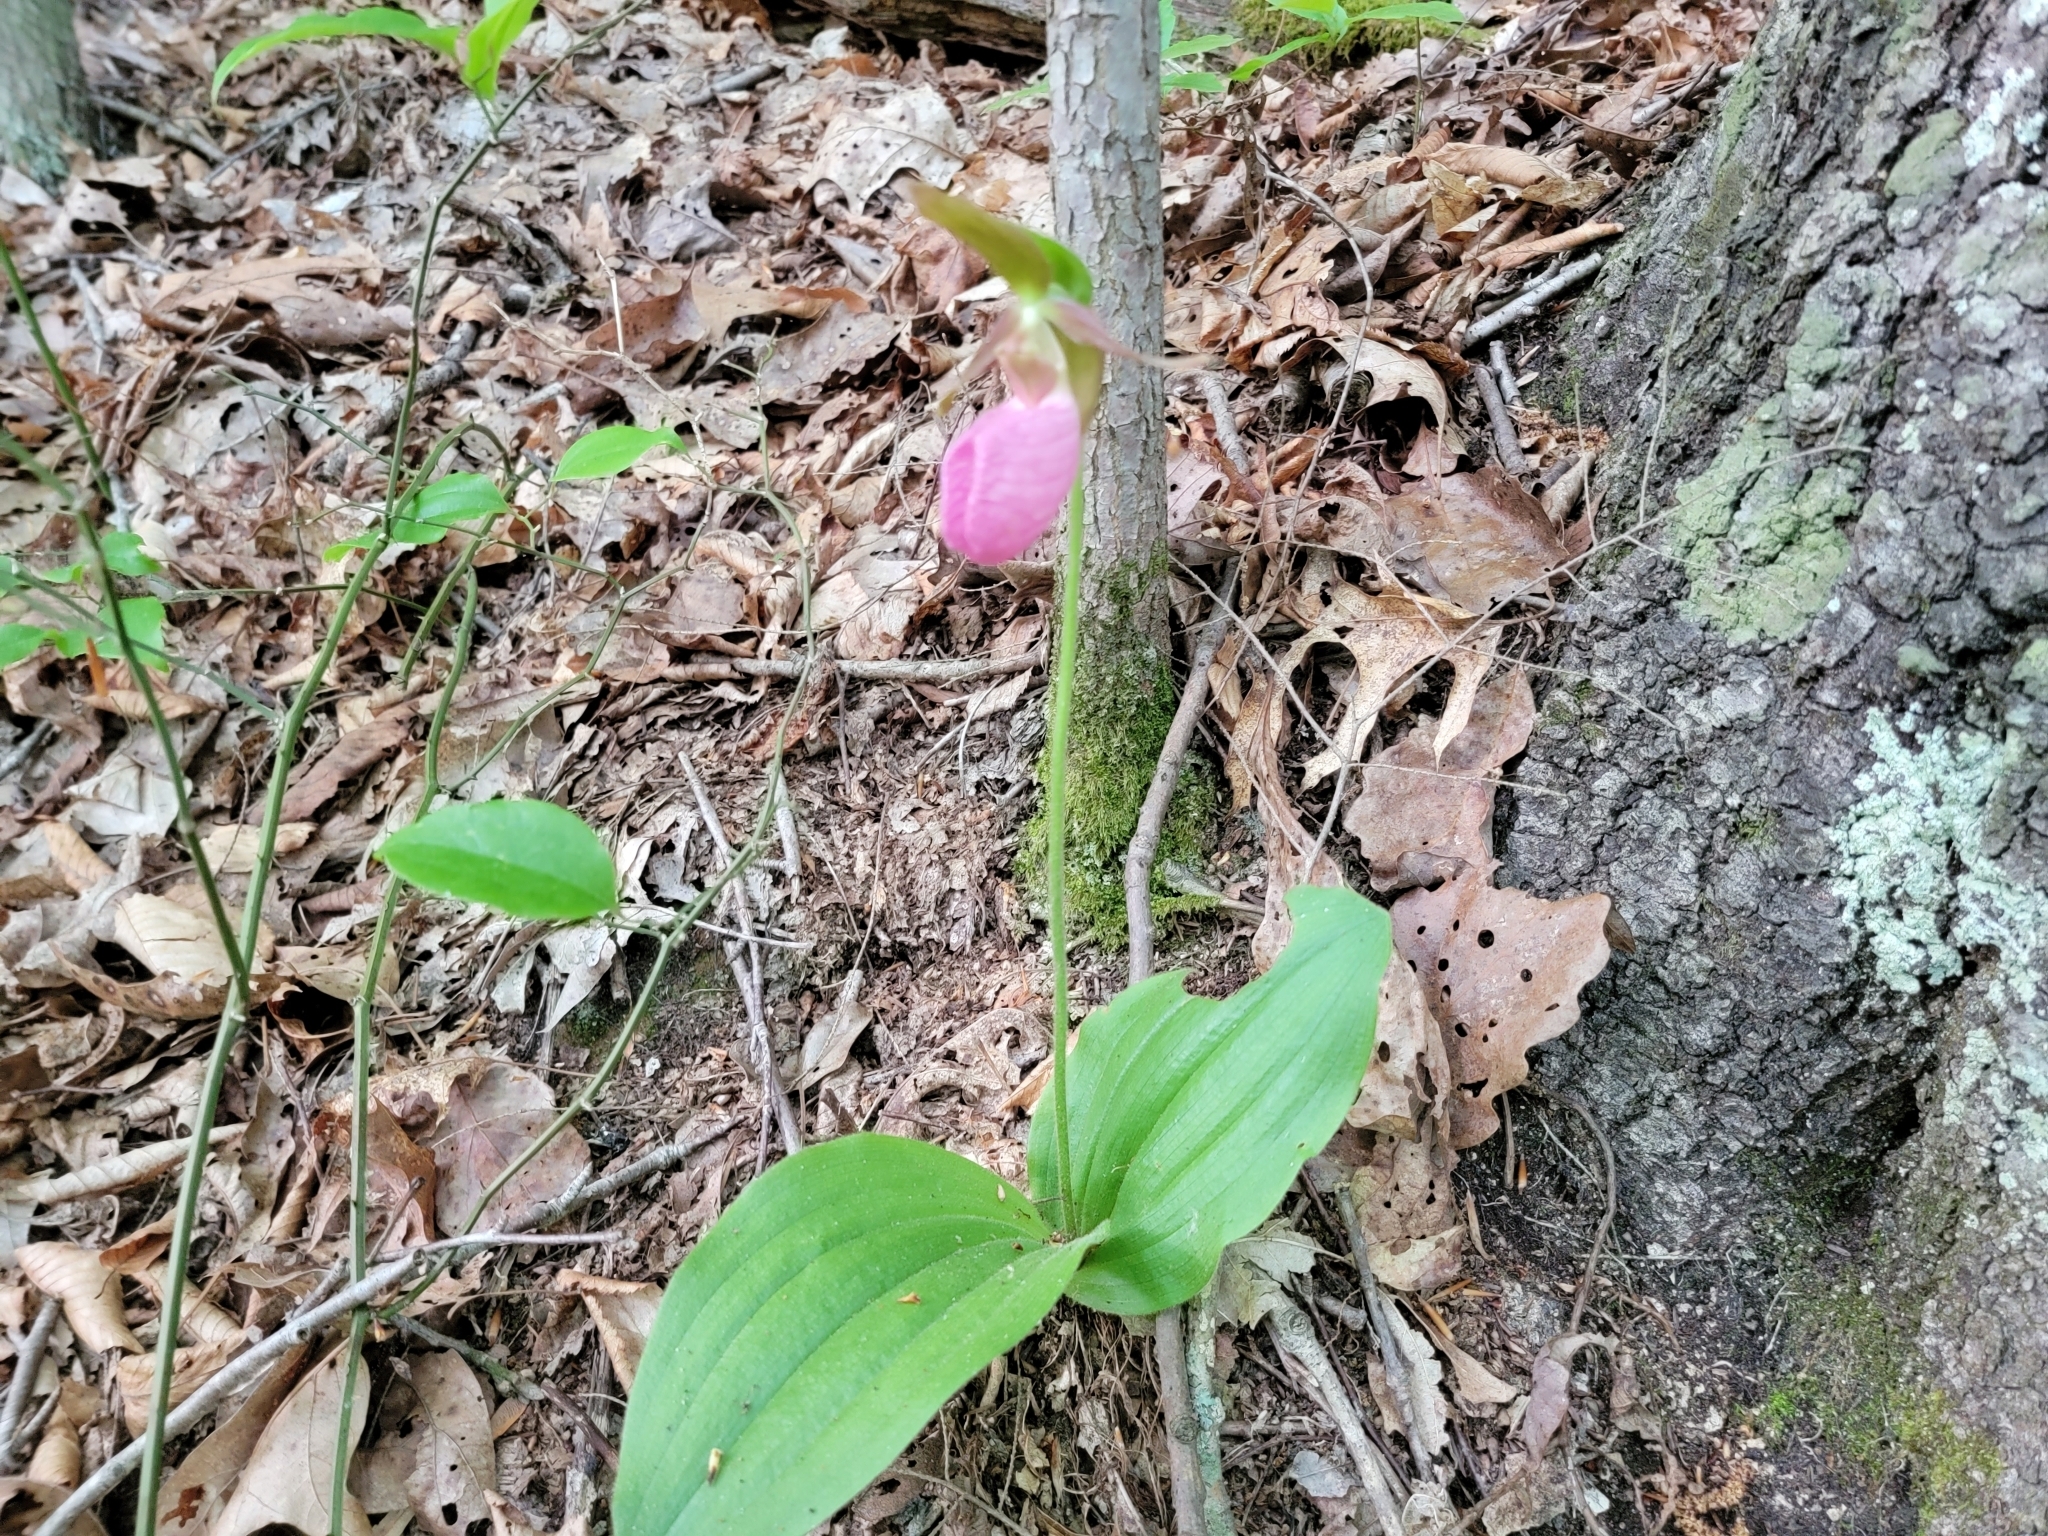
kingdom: Plantae
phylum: Tracheophyta
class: Liliopsida
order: Asparagales
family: Orchidaceae
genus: Cypripedium
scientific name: Cypripedium acaule
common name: Pink lady's-slipper
